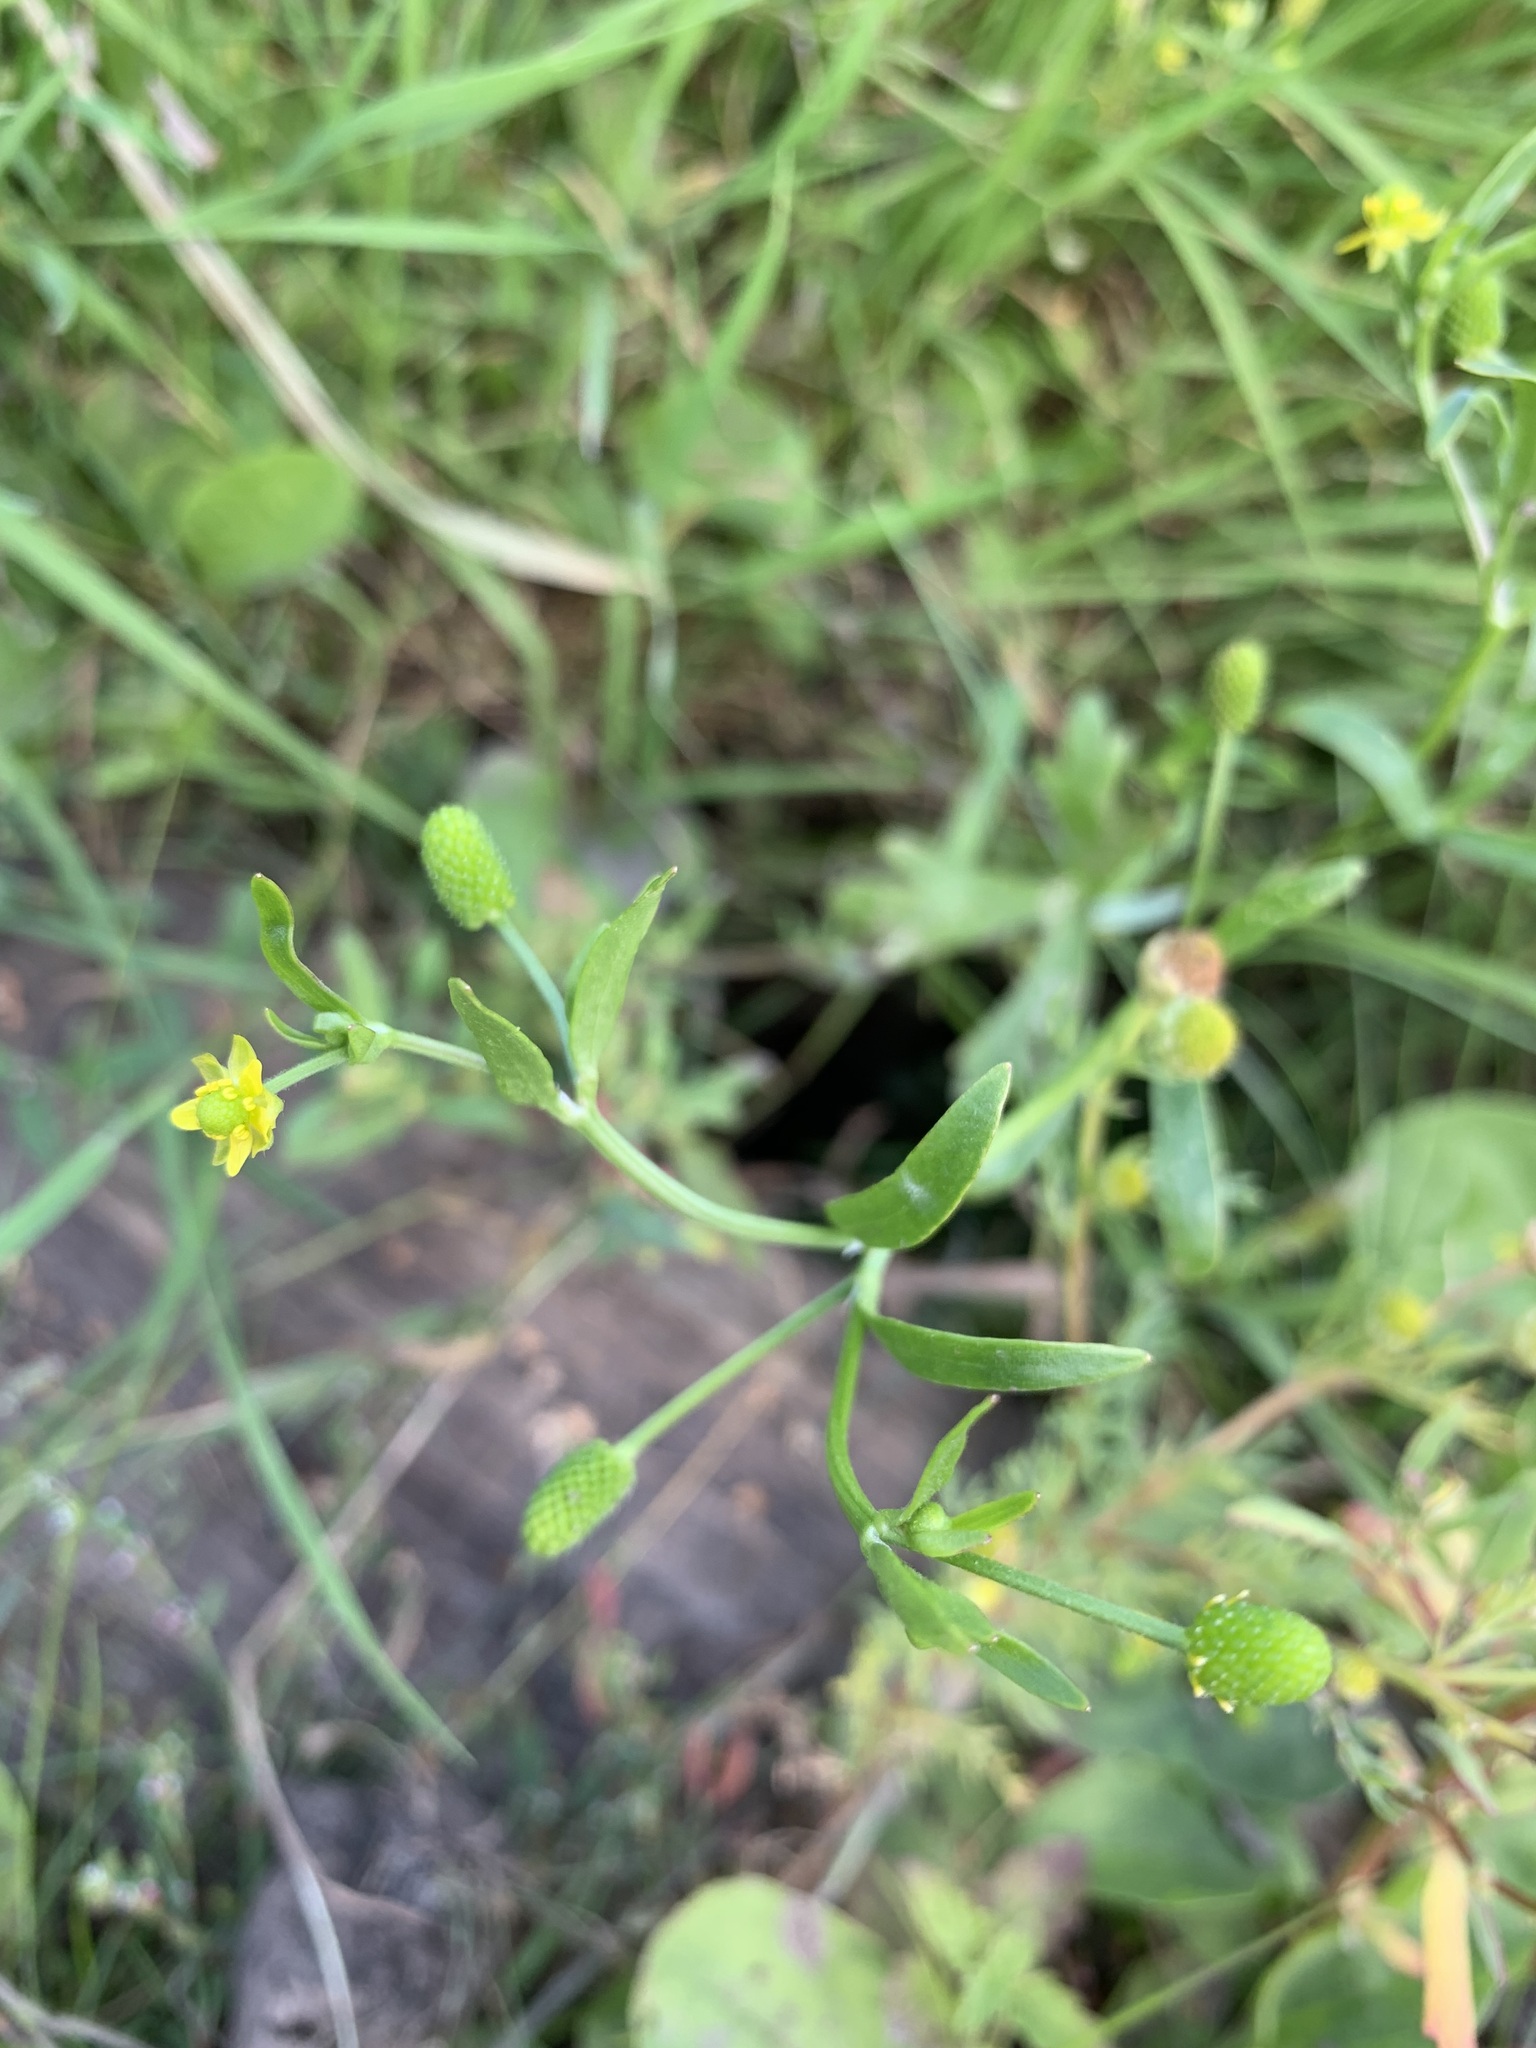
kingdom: Plantae
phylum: Tracheophyta
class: Magnoliopsida
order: Ranunculales
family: Ranunculaceae
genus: Ranunculus
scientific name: Ranunculus sceleratus
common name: Celery-leaved buttercup
